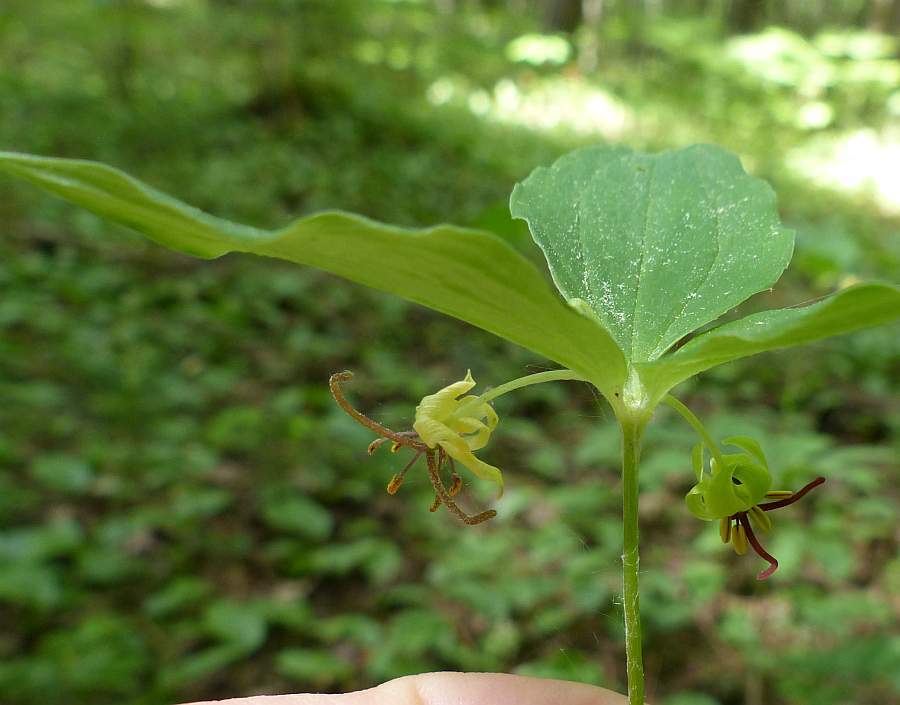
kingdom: Plantae
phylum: Tracheophyta
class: Liliopsida
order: Liliales
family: Liliaceae
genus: Medeola
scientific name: Medeola virginiana
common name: Indian cucumber-root
